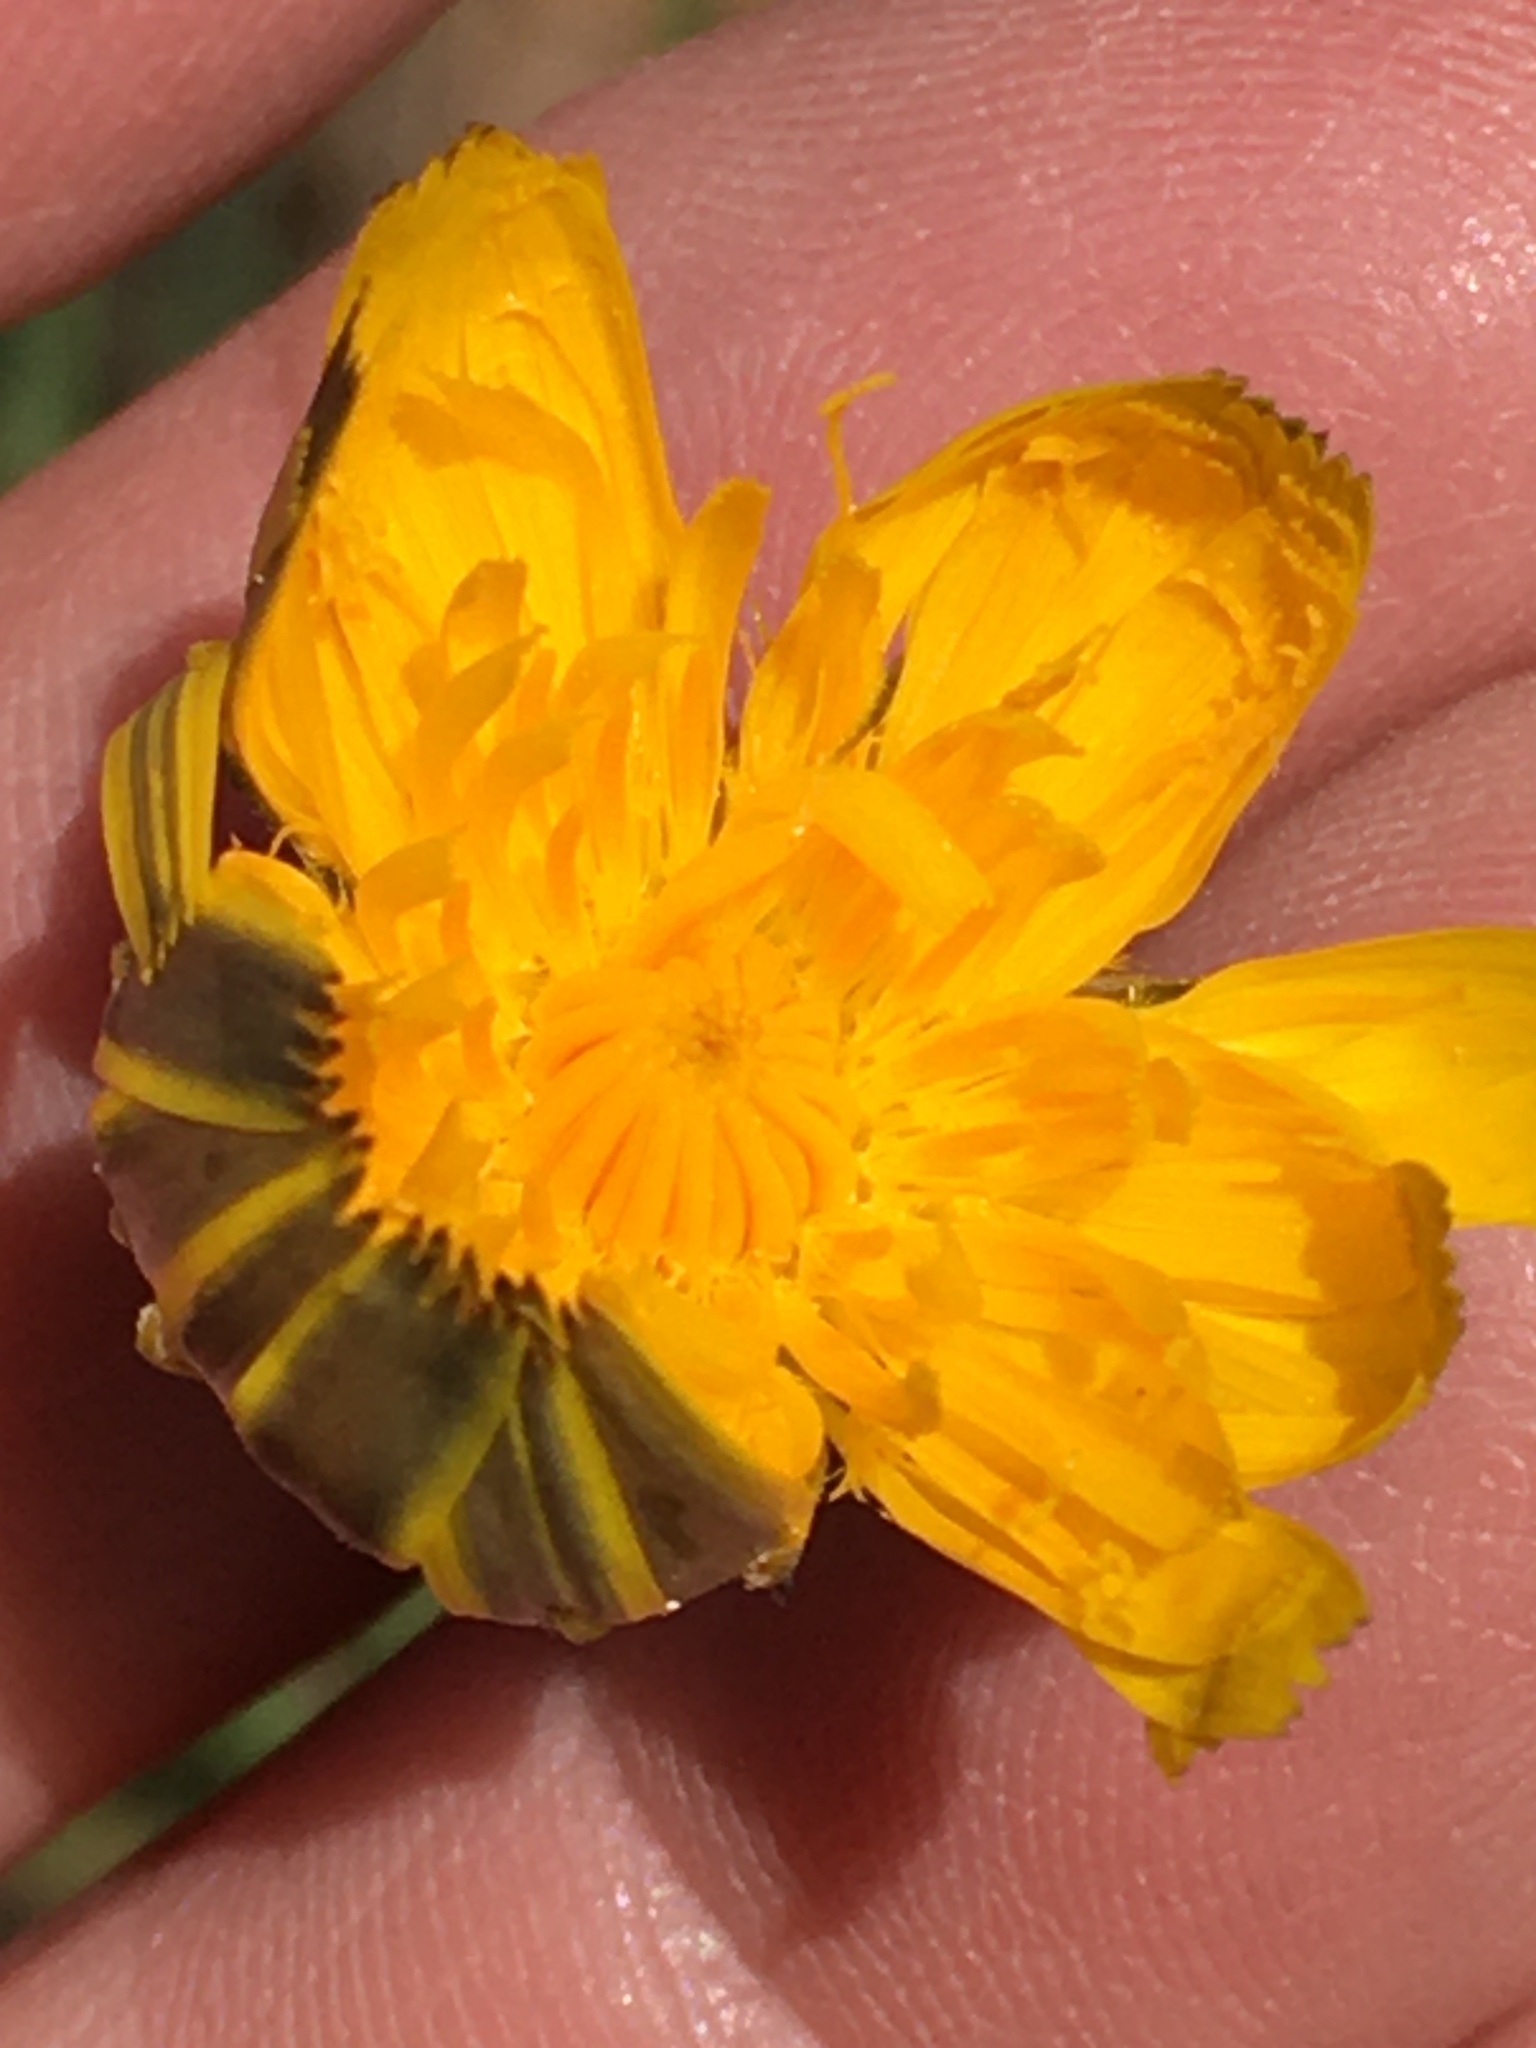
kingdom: Plantae
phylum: Tracheophyta
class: Magnoliopsida
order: Asterales
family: Asteraceae
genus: Hypochaeris
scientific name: Hypochaeris radicata
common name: Flatweed
